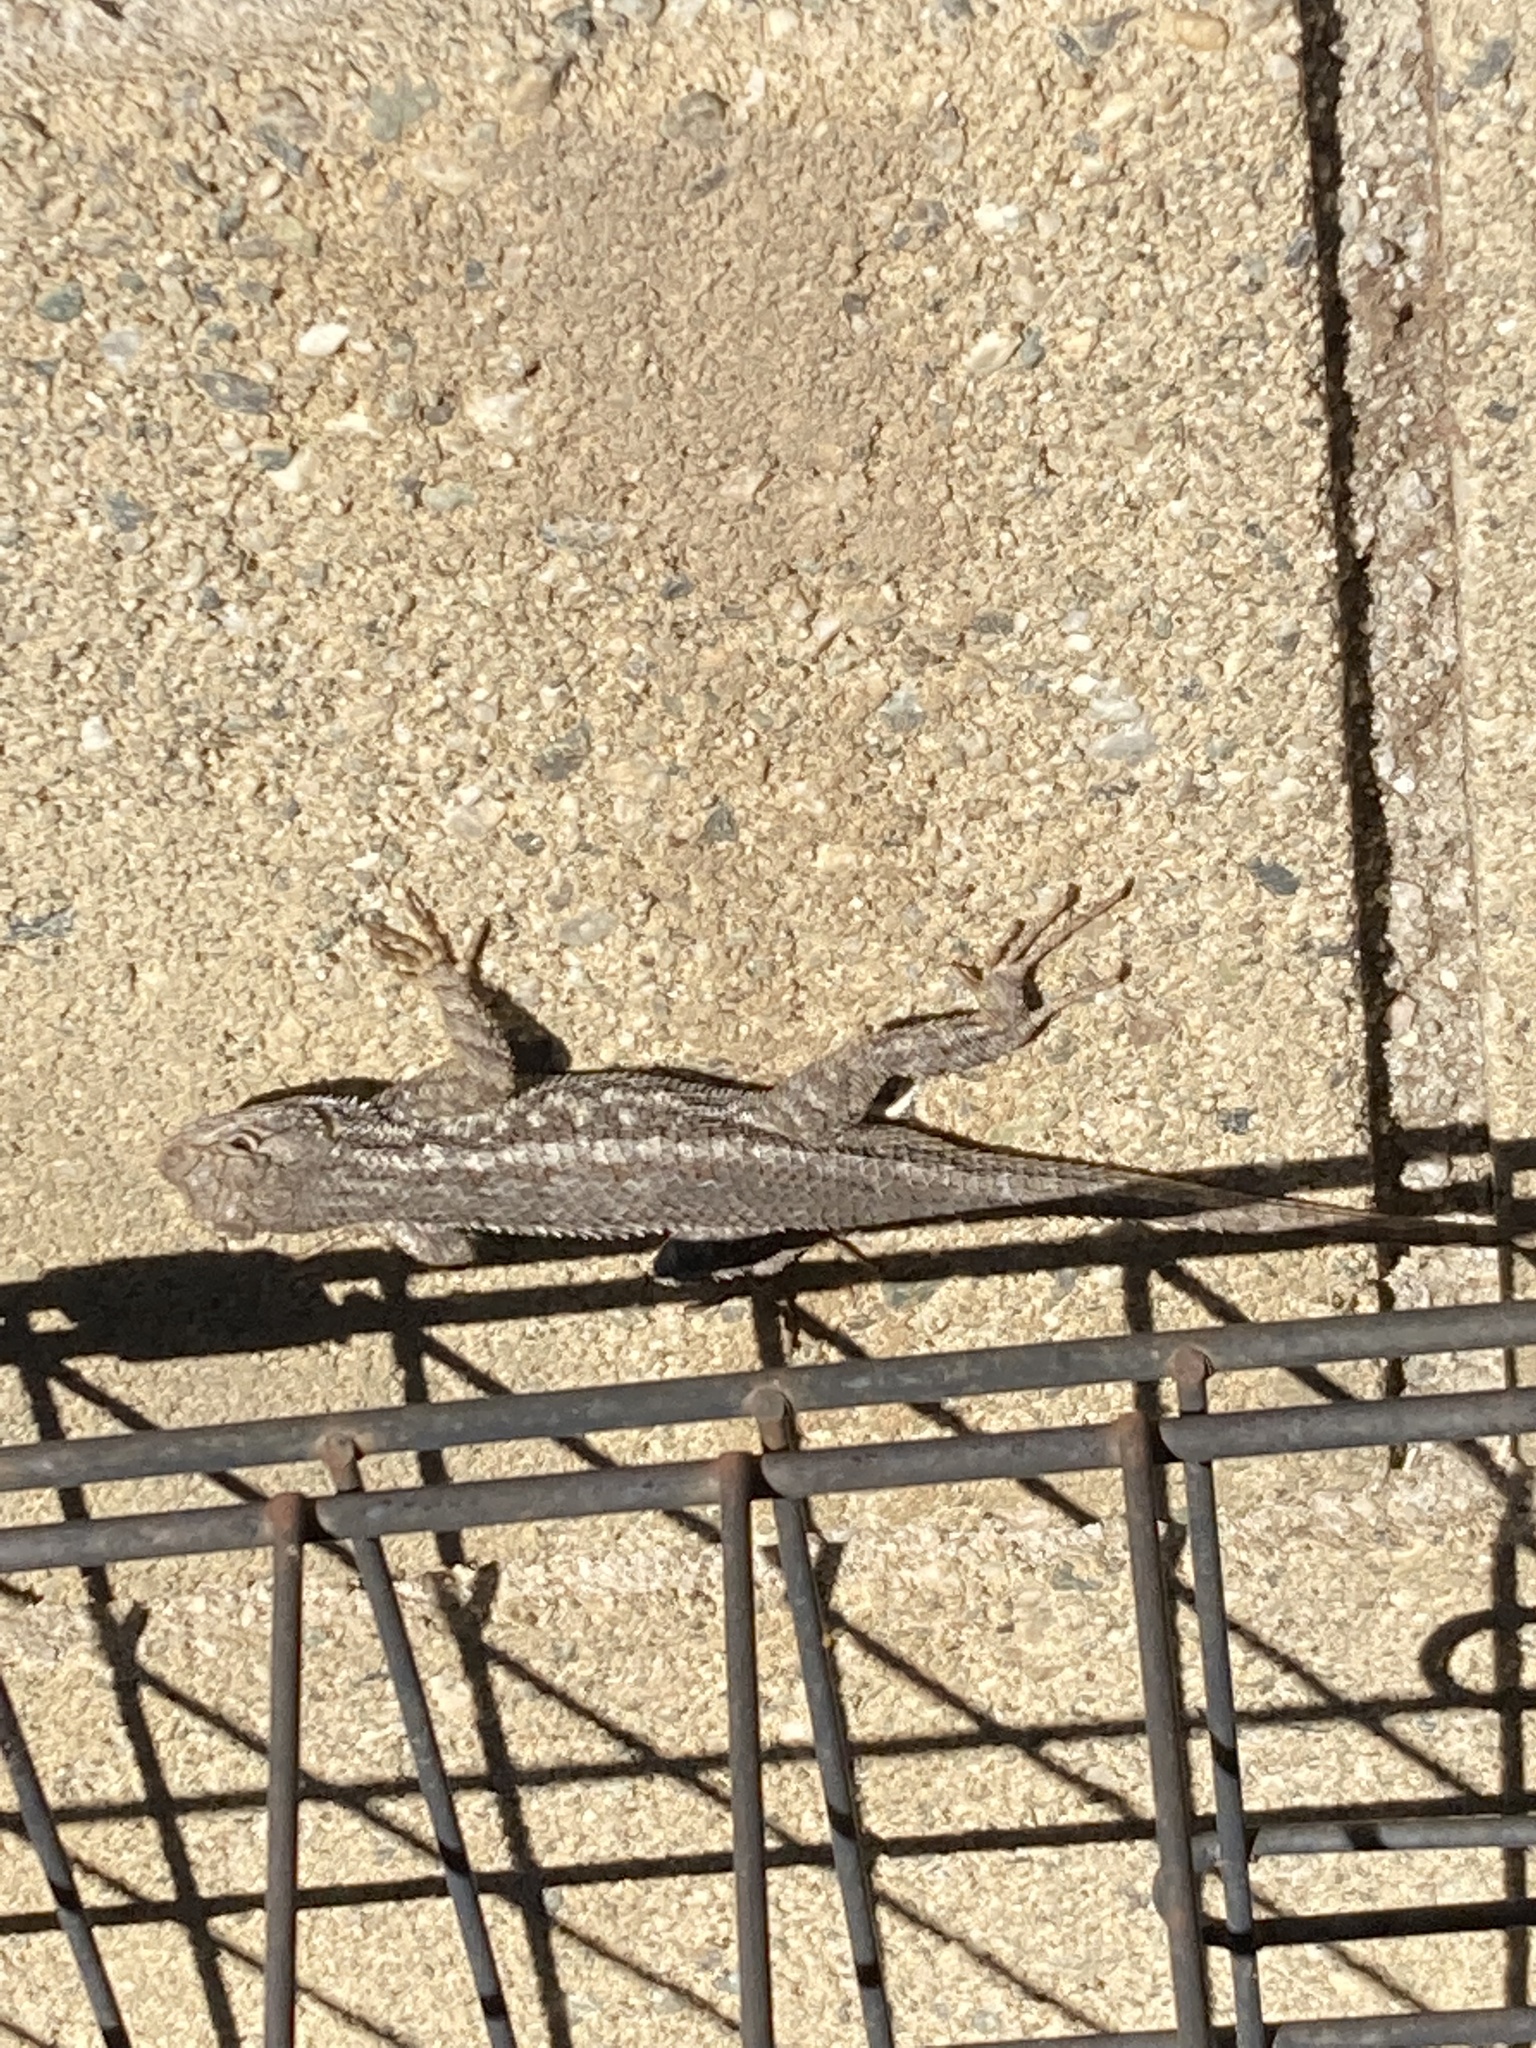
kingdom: Animalia
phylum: Chordata
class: Squamata
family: Phrynosomatidae
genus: Sceloporus
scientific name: Sceloporus occidentalis
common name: Western fence lizard
